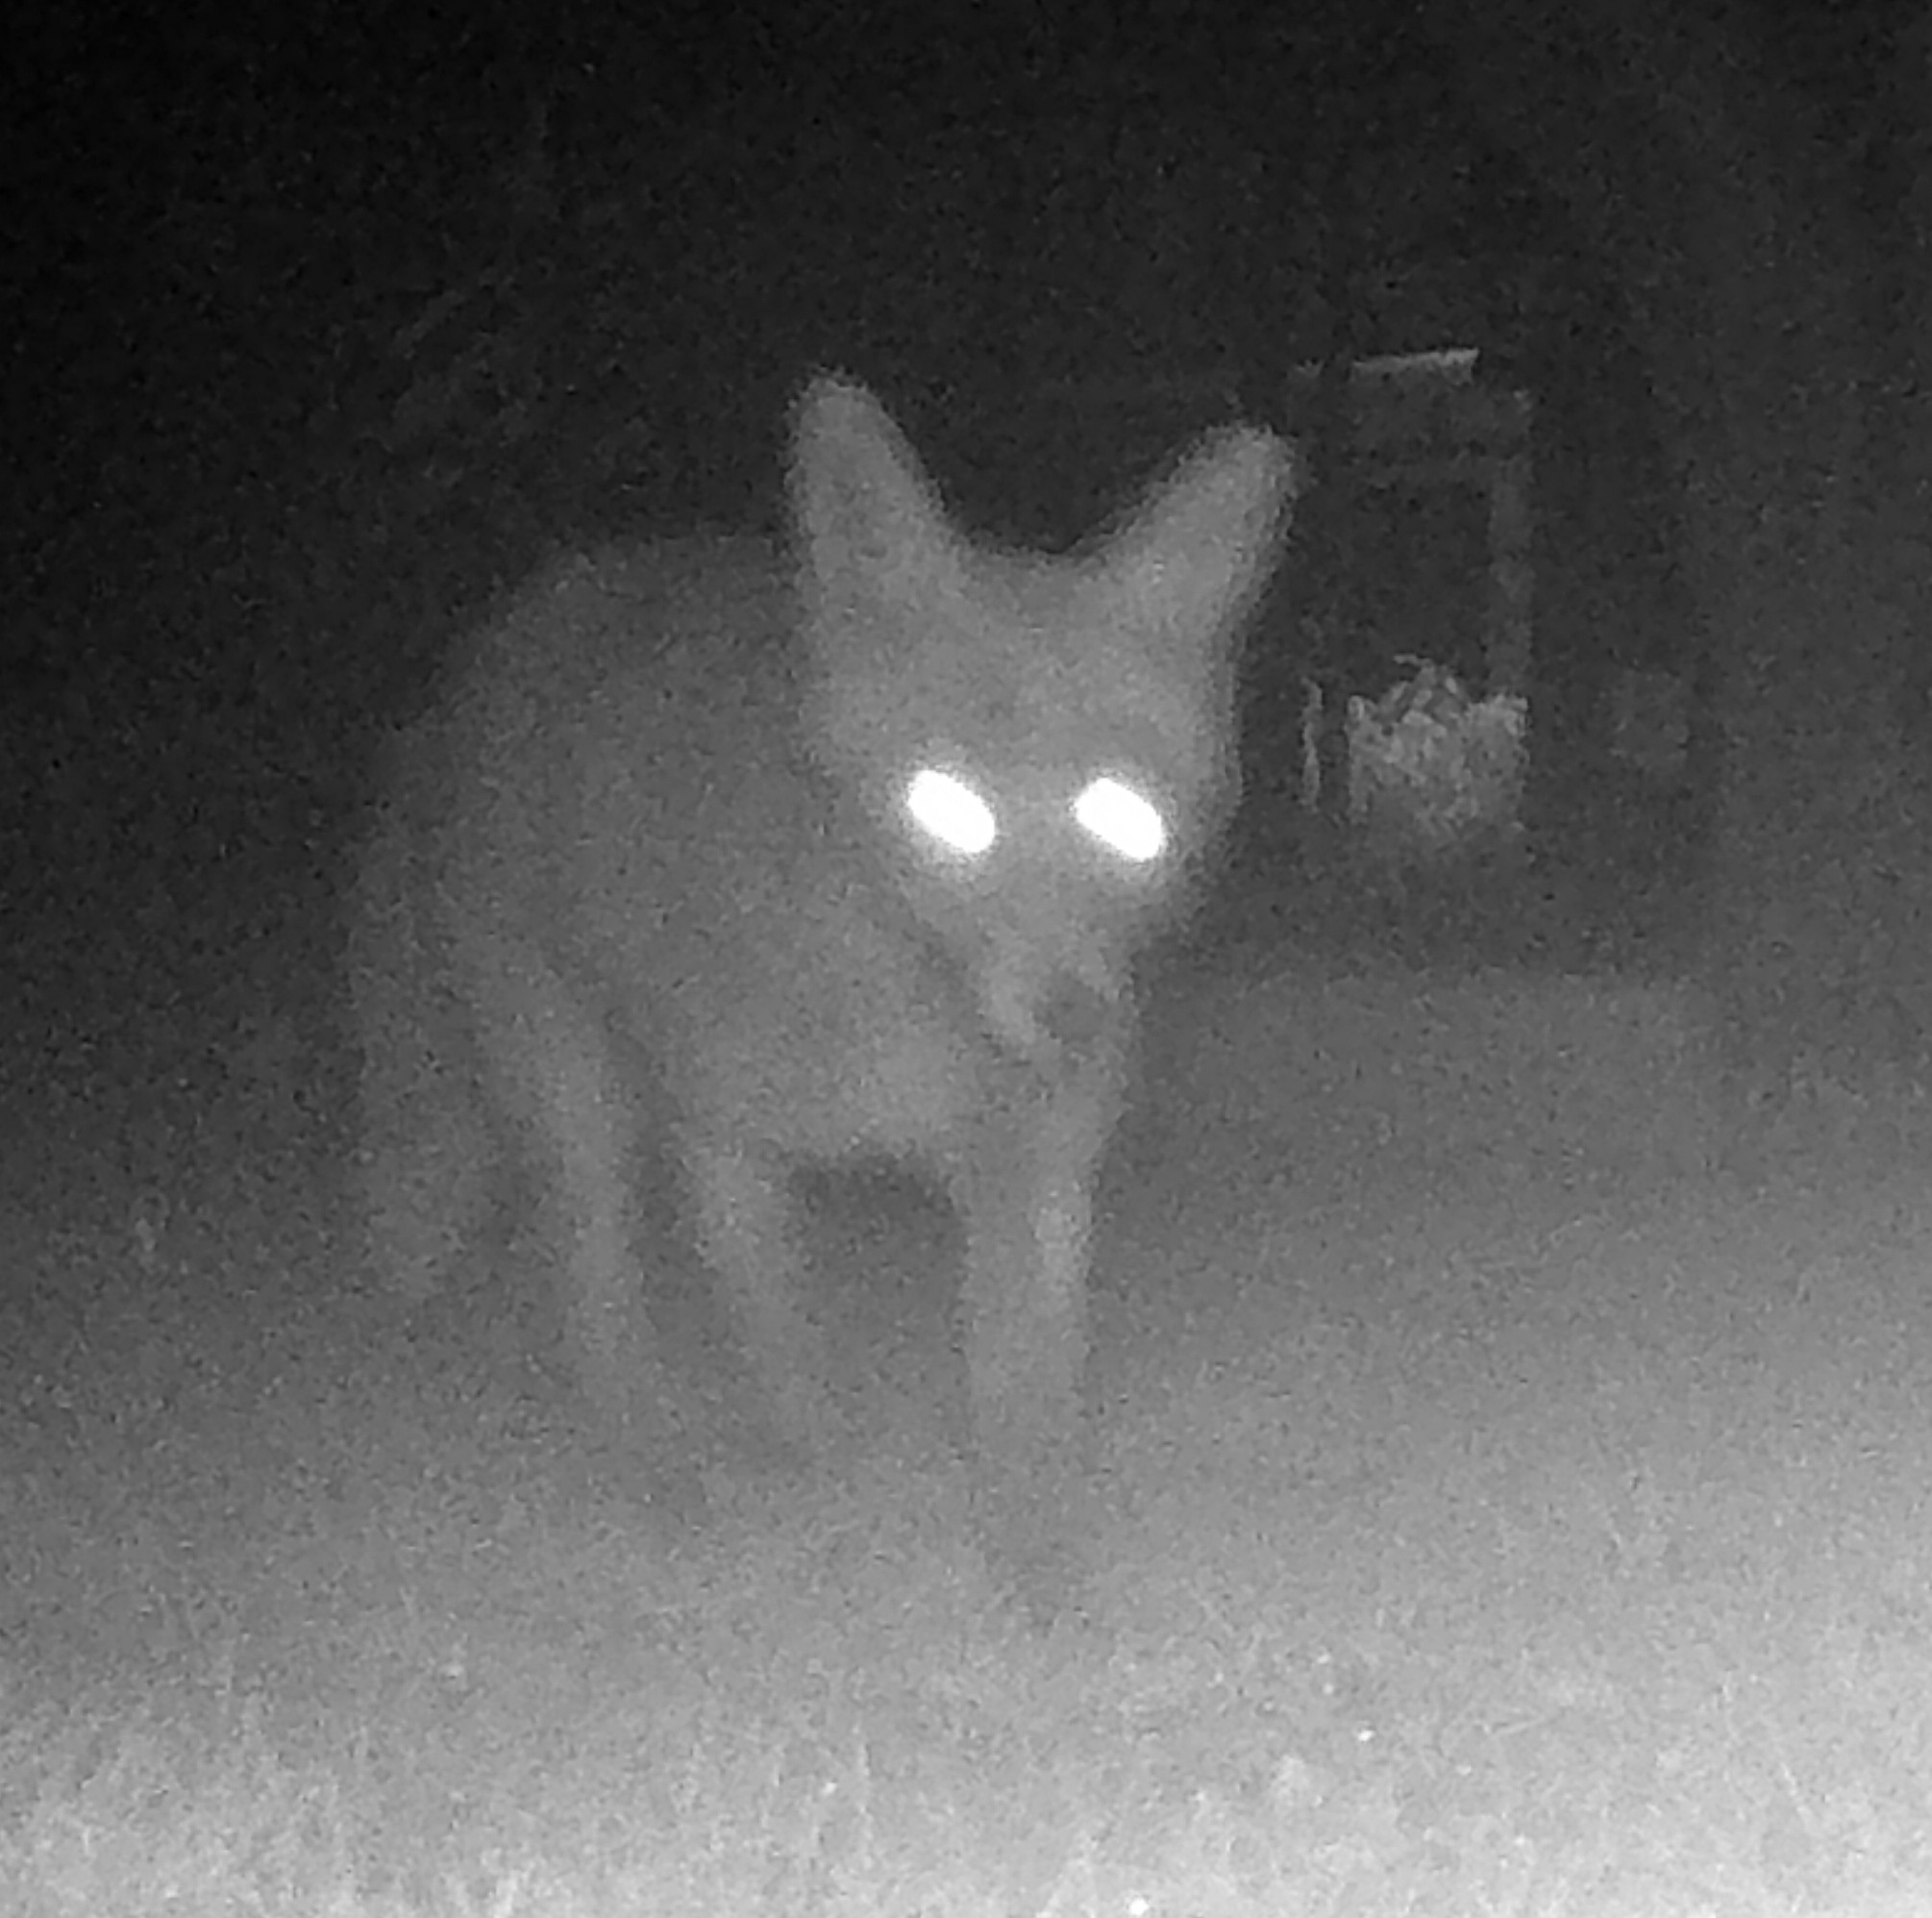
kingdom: Animalia
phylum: Chordata
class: Mammalia
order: Carnivora
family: Canidae
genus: Vulpes
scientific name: Vulpes vulpes
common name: Red fox
